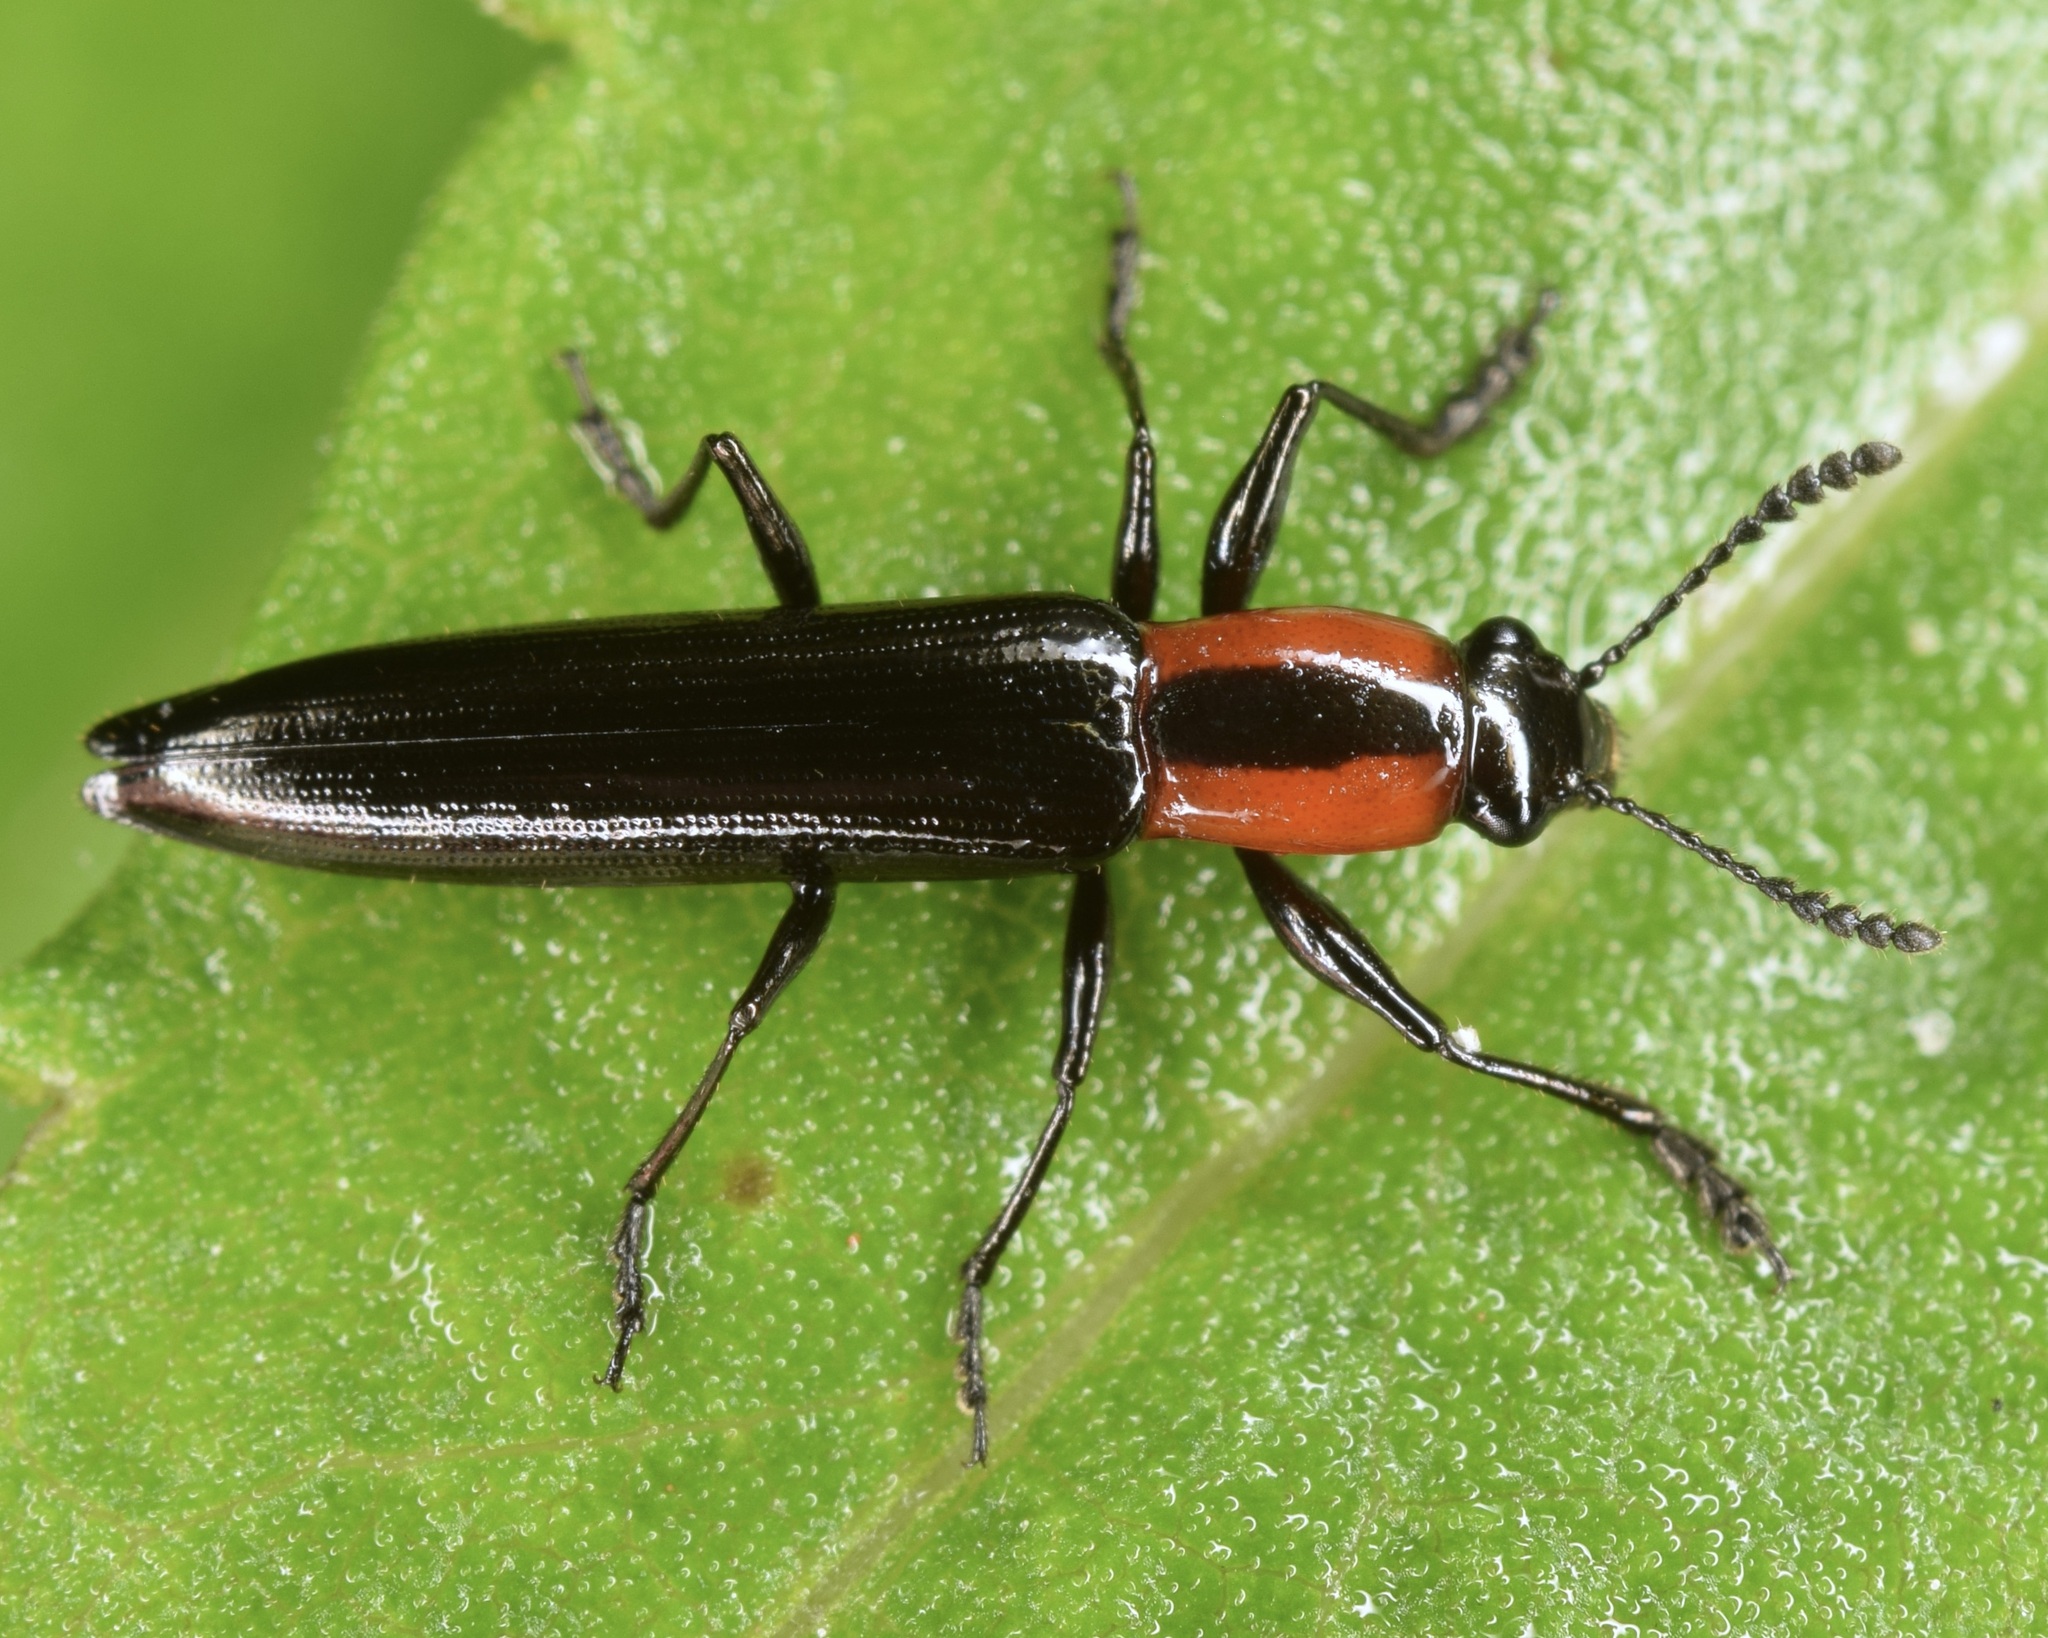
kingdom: Animalia
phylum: Arthropoda
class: Insecta
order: Coleoptera
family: Erotylidae
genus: Acropteroxys
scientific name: Acropteroxys gracilis
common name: Slender lizard beetle
